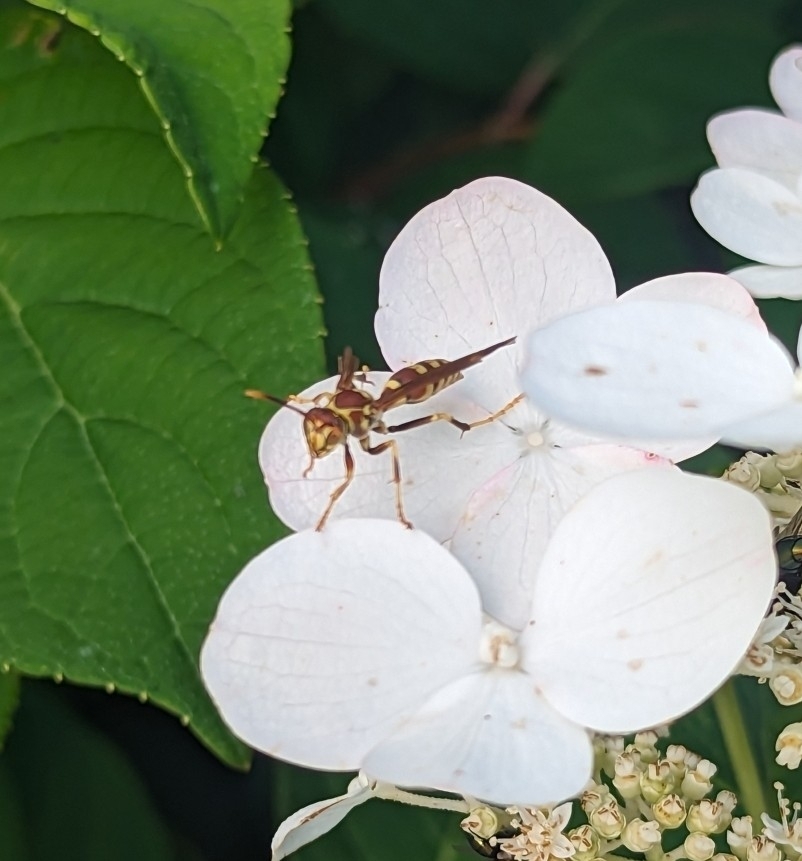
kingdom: Animalia
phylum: Arthropoda
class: Insecta
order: Hymenoptera
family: Eumenidae
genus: Polistes
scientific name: Polistes exclamans
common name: Paper wasp
